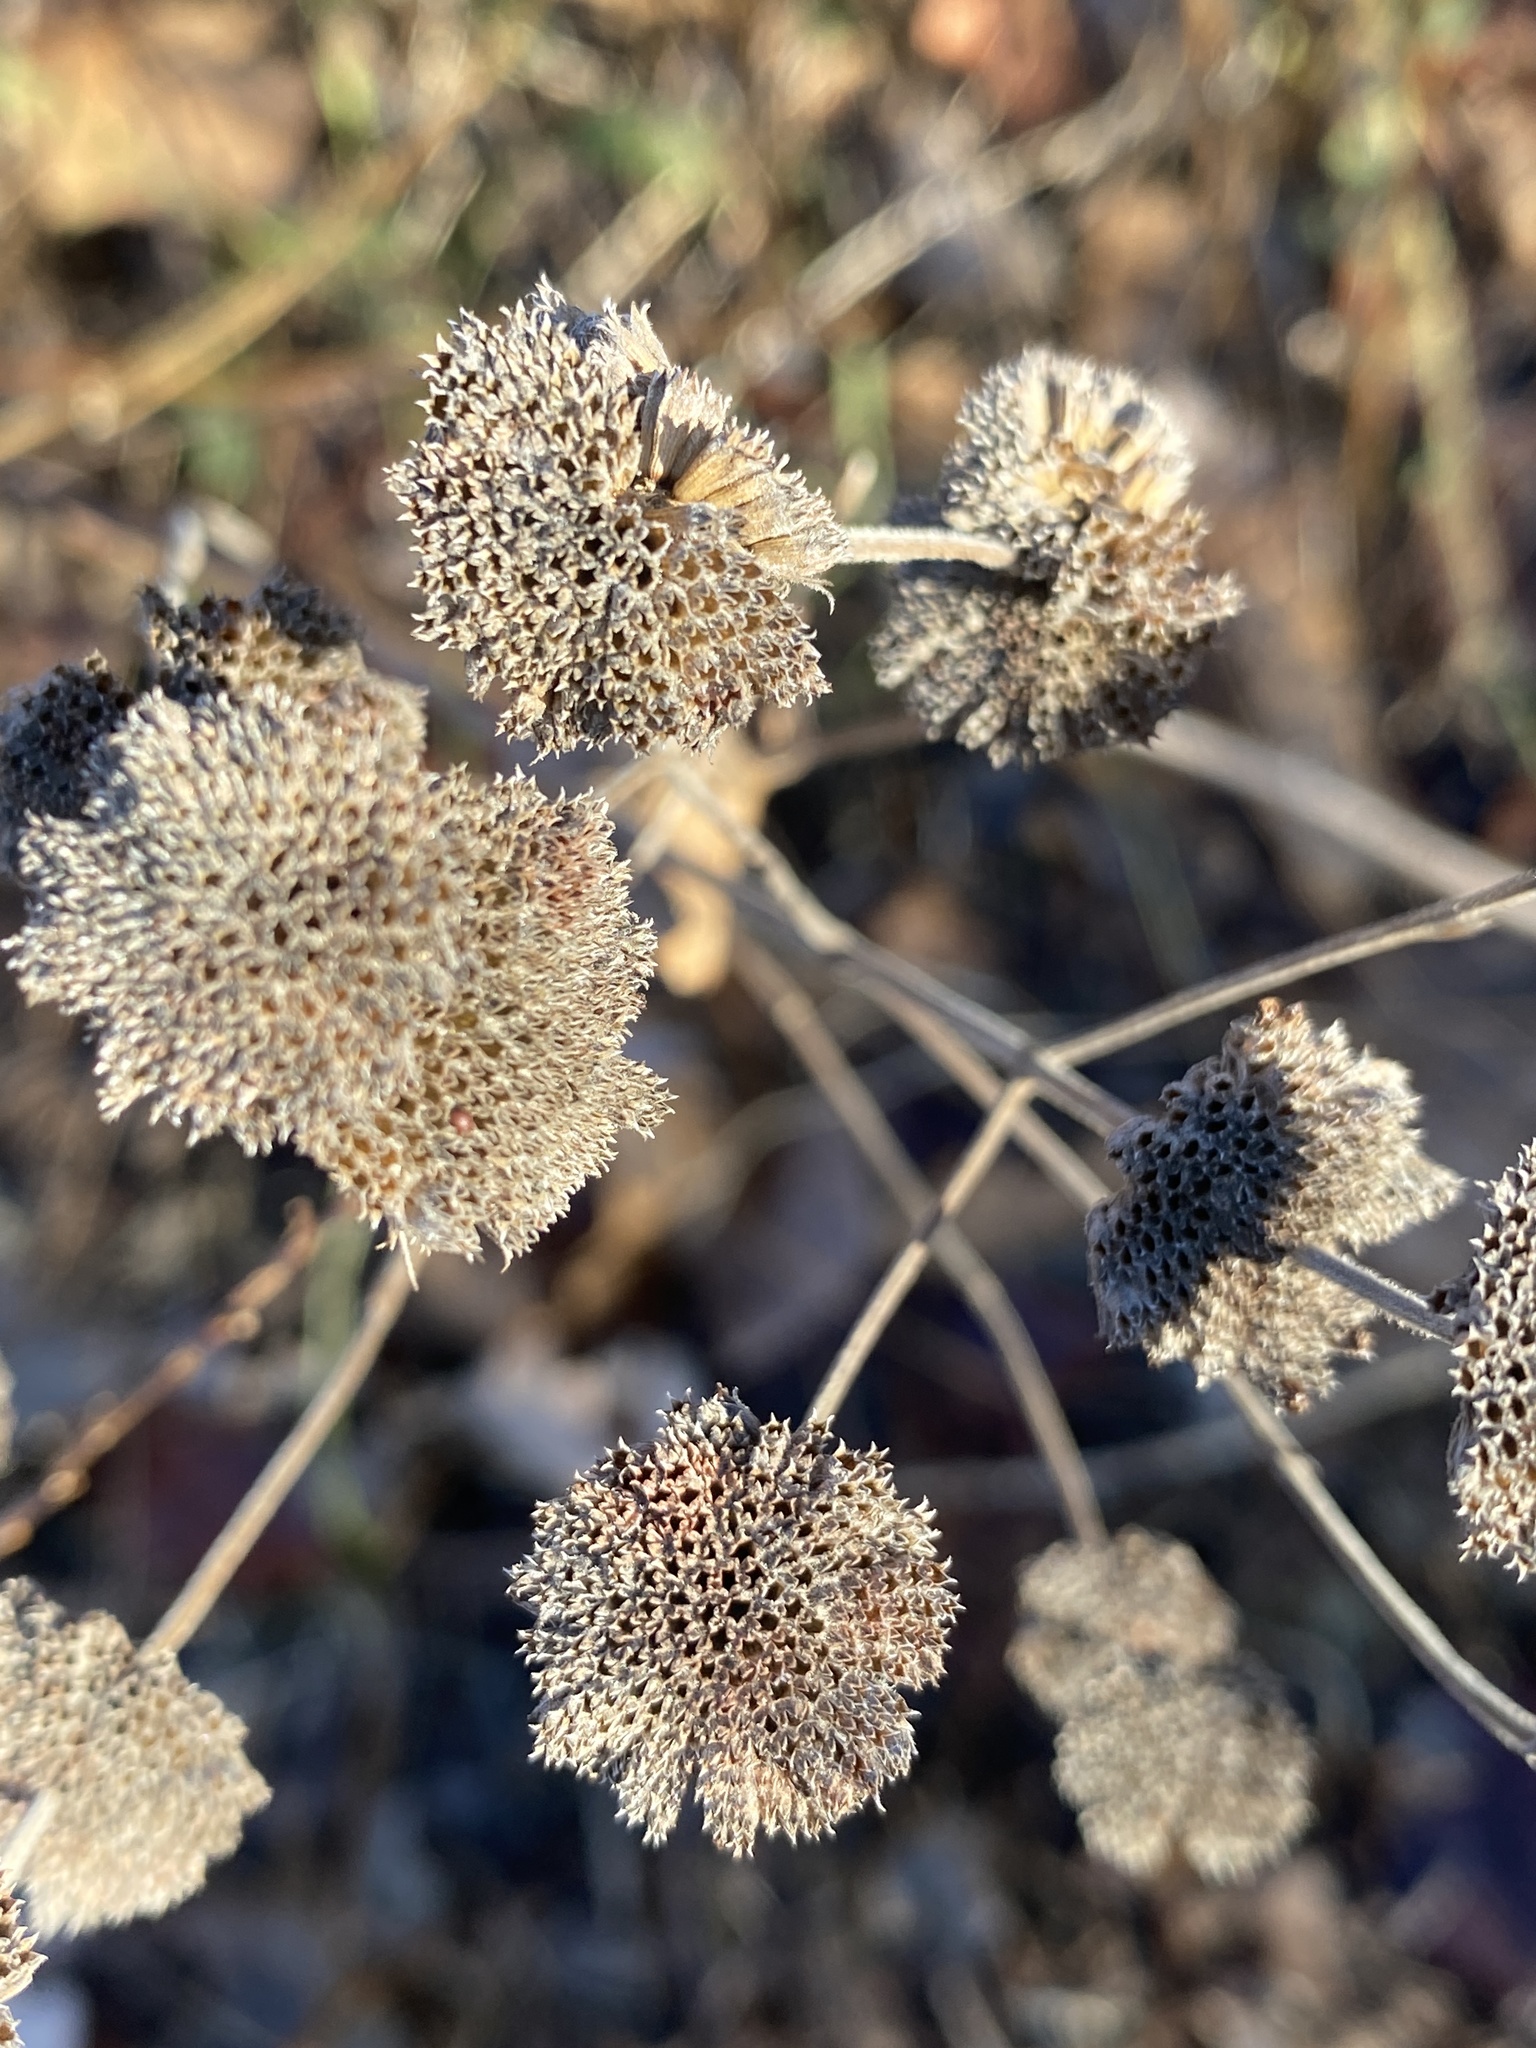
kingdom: Plantae
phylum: Tracheophyta
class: Magnoliopsida
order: Lamiales
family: Lamiaceae
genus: Pycnanthemum
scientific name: Pycnanthemum
